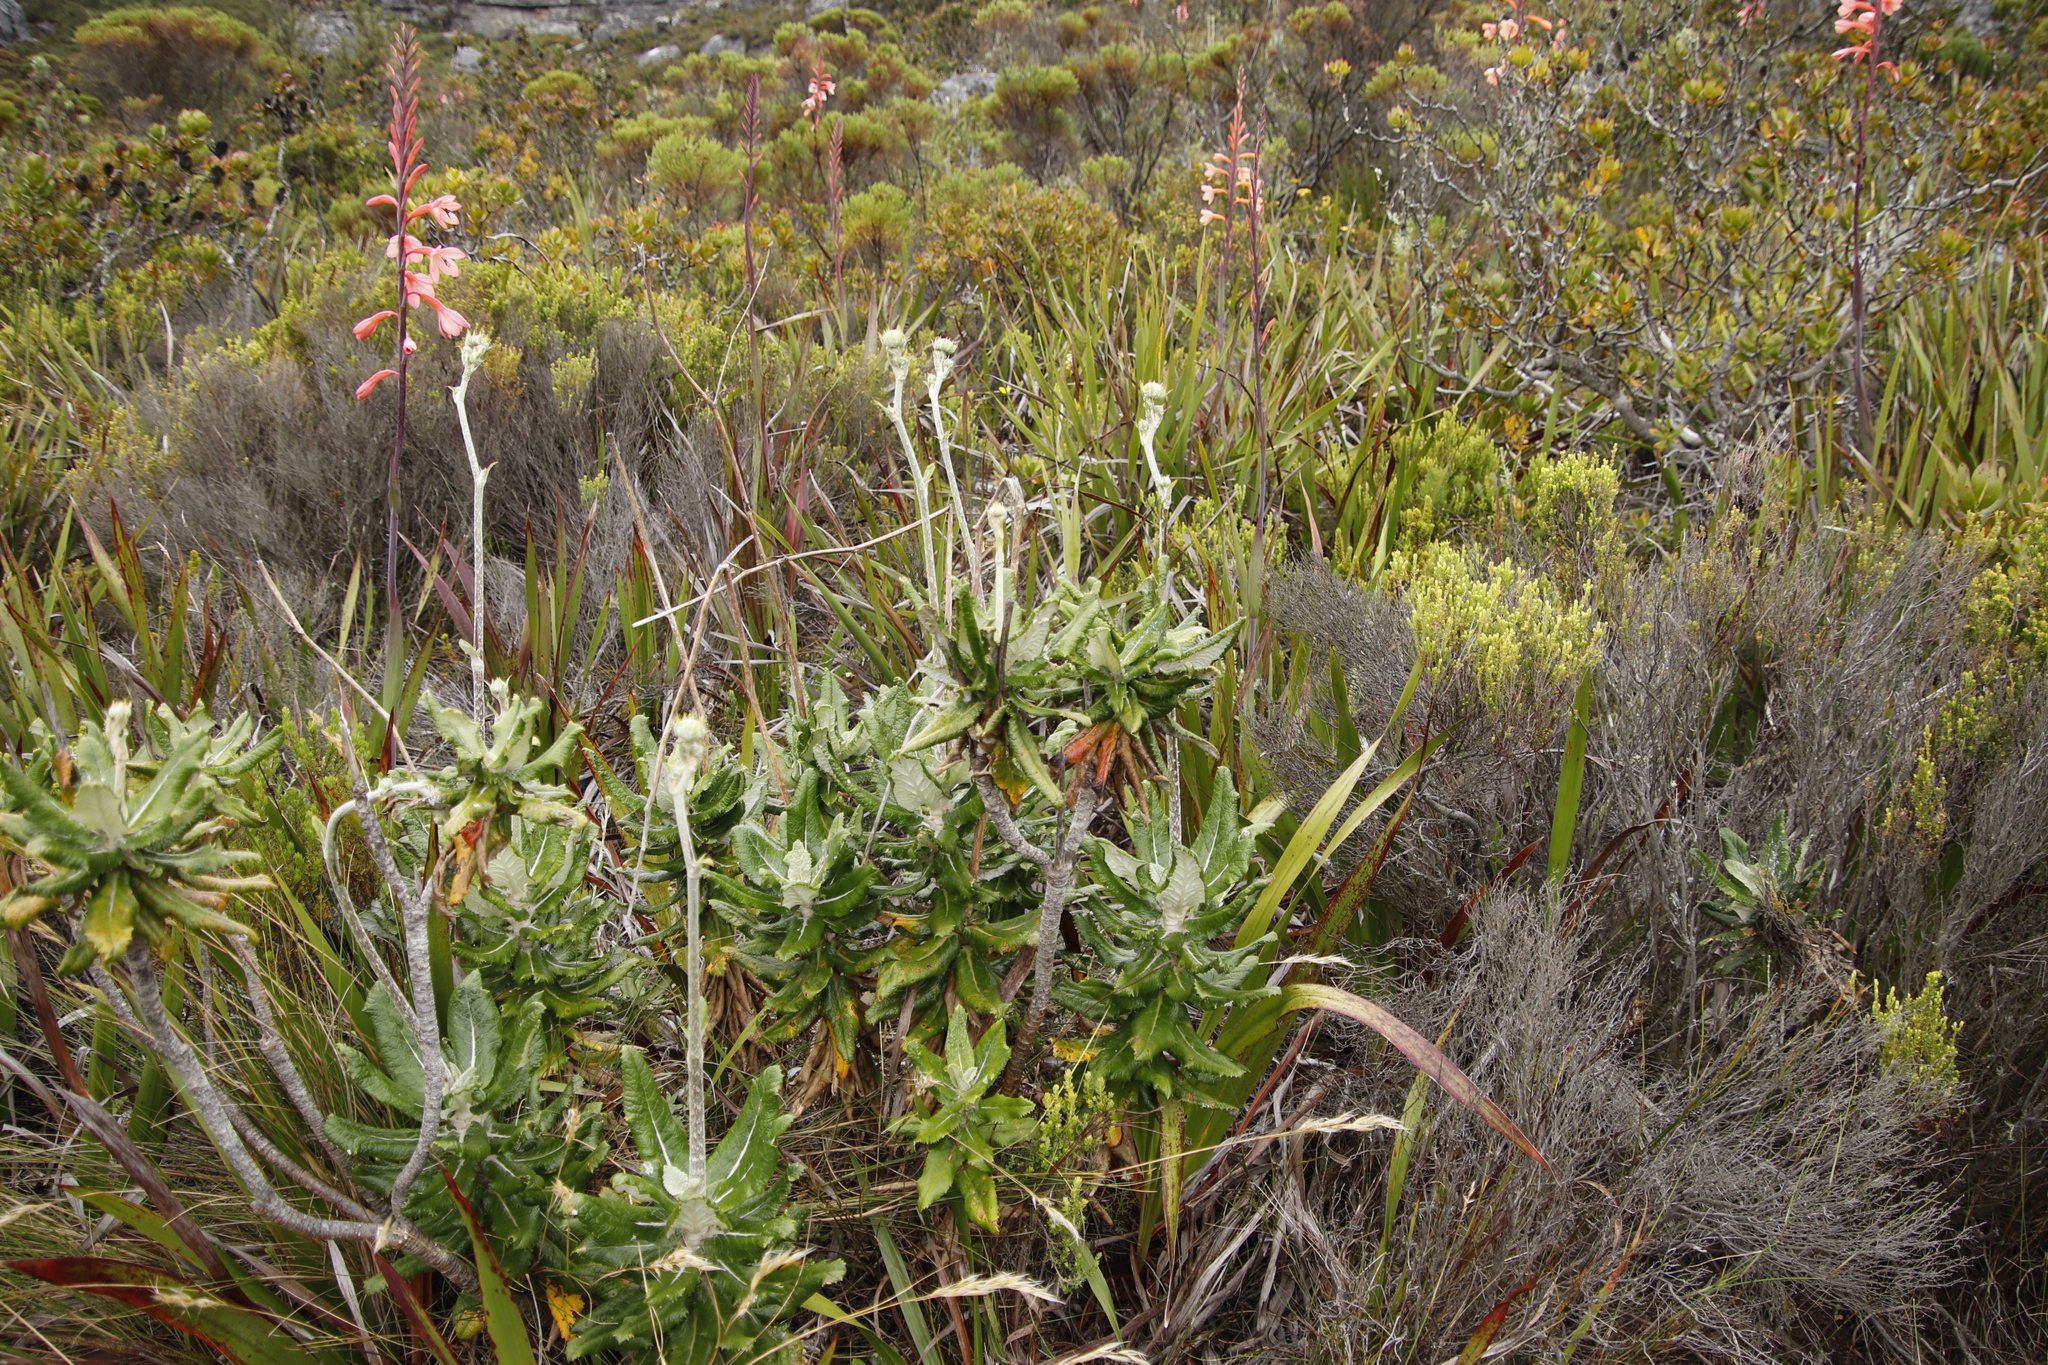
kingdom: Plantae
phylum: Tracheophyta
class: Magnoliopsida
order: Apiales
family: Apiaceae
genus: Hermas
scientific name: Hermas villosa
